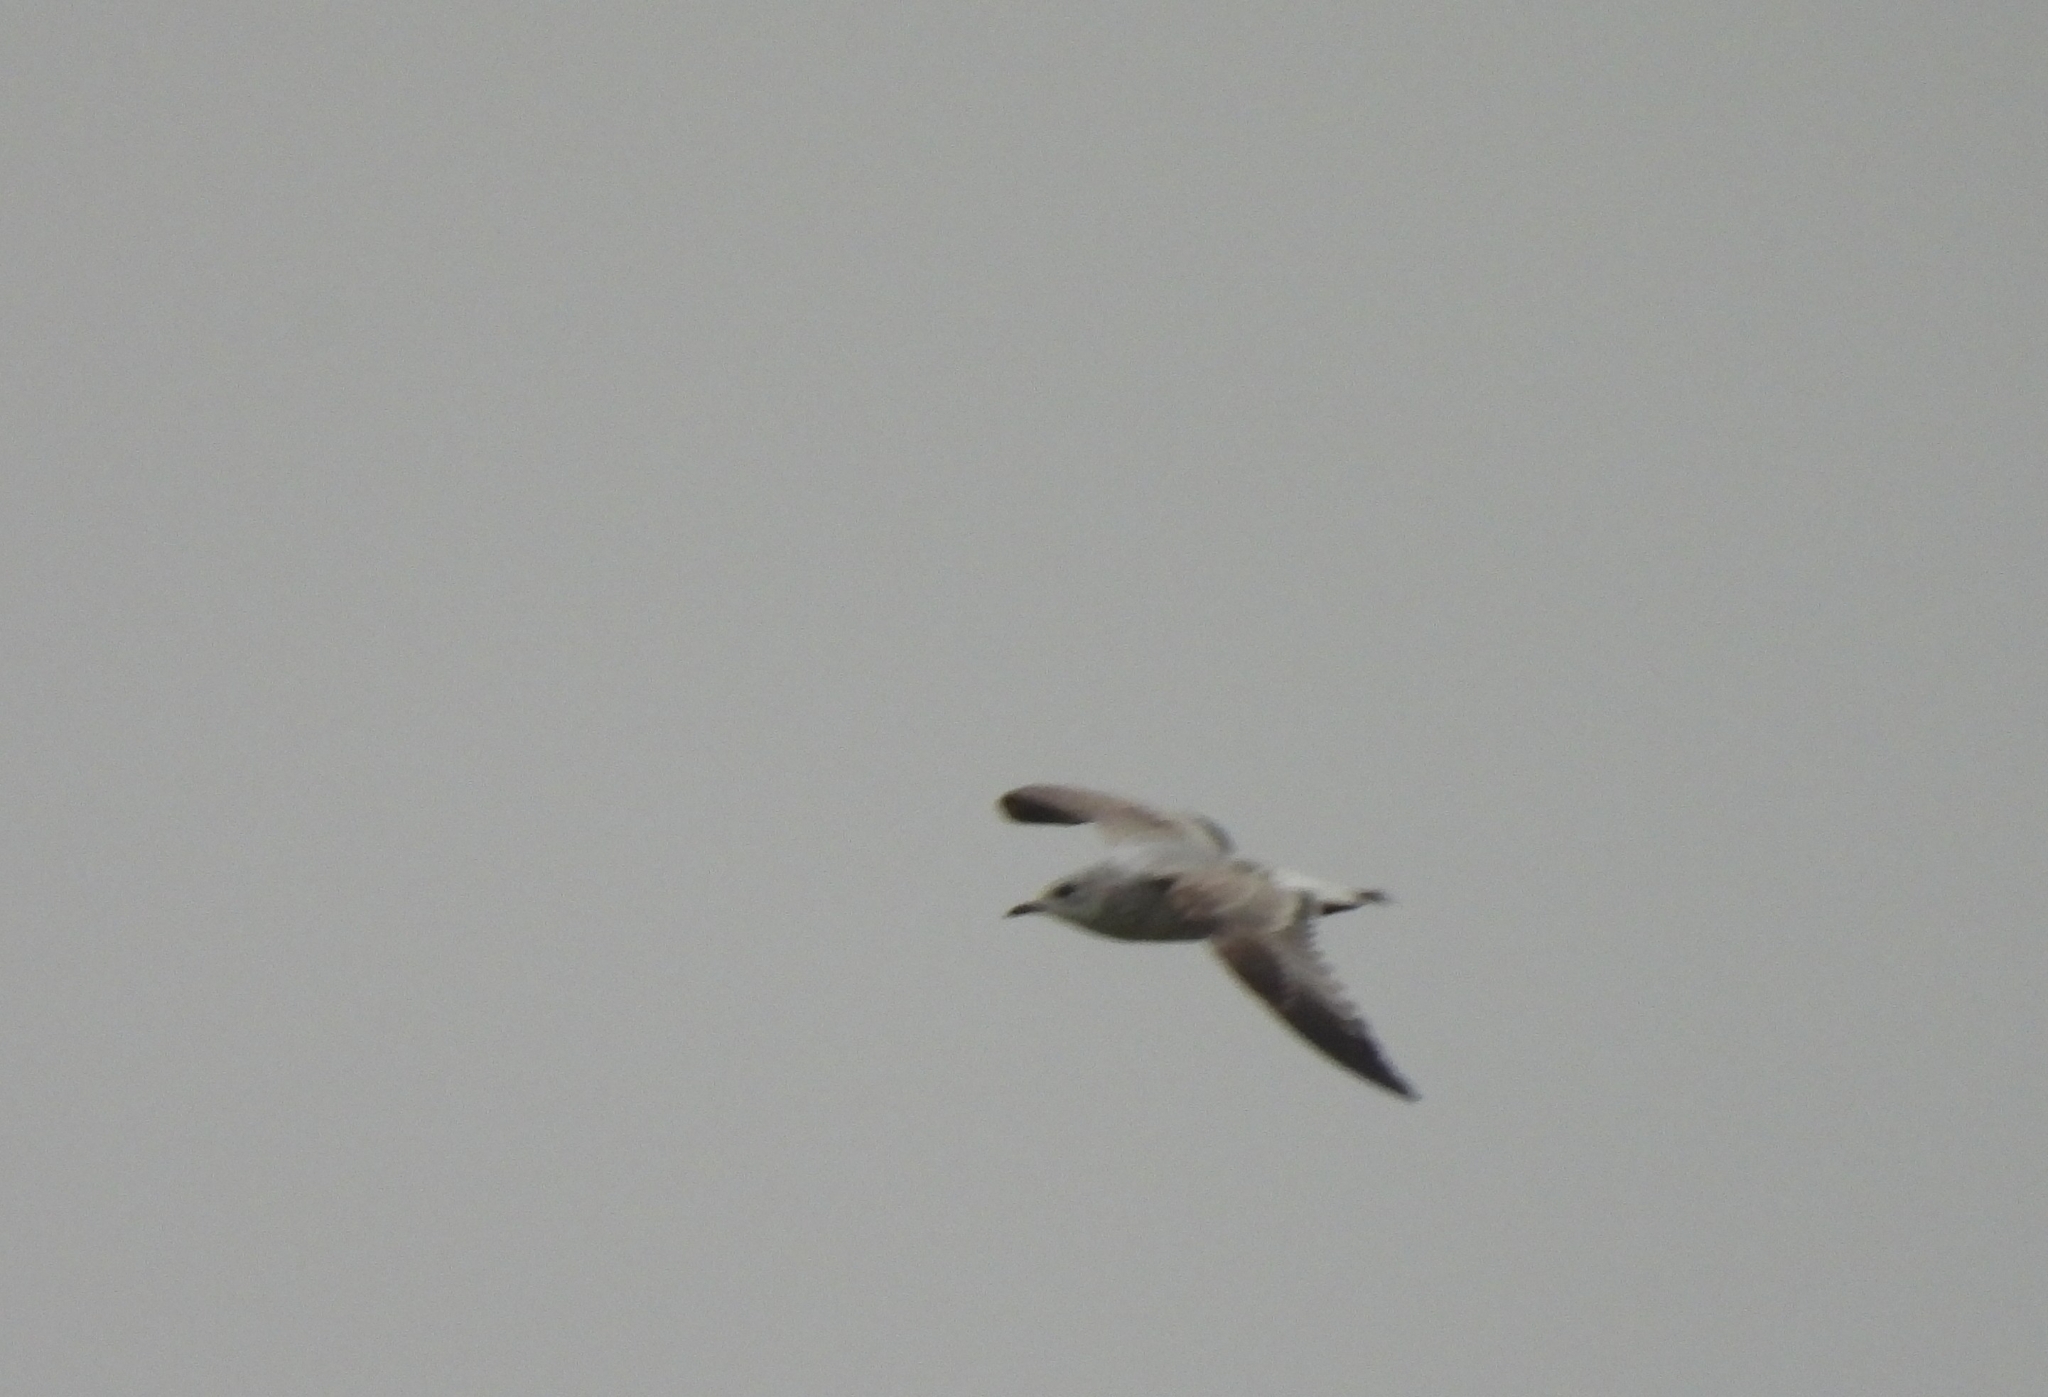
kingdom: Animalia
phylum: Chordata
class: Aves
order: Charadriiformes
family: Laridae
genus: Larus
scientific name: Larus canus
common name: Mew gull
